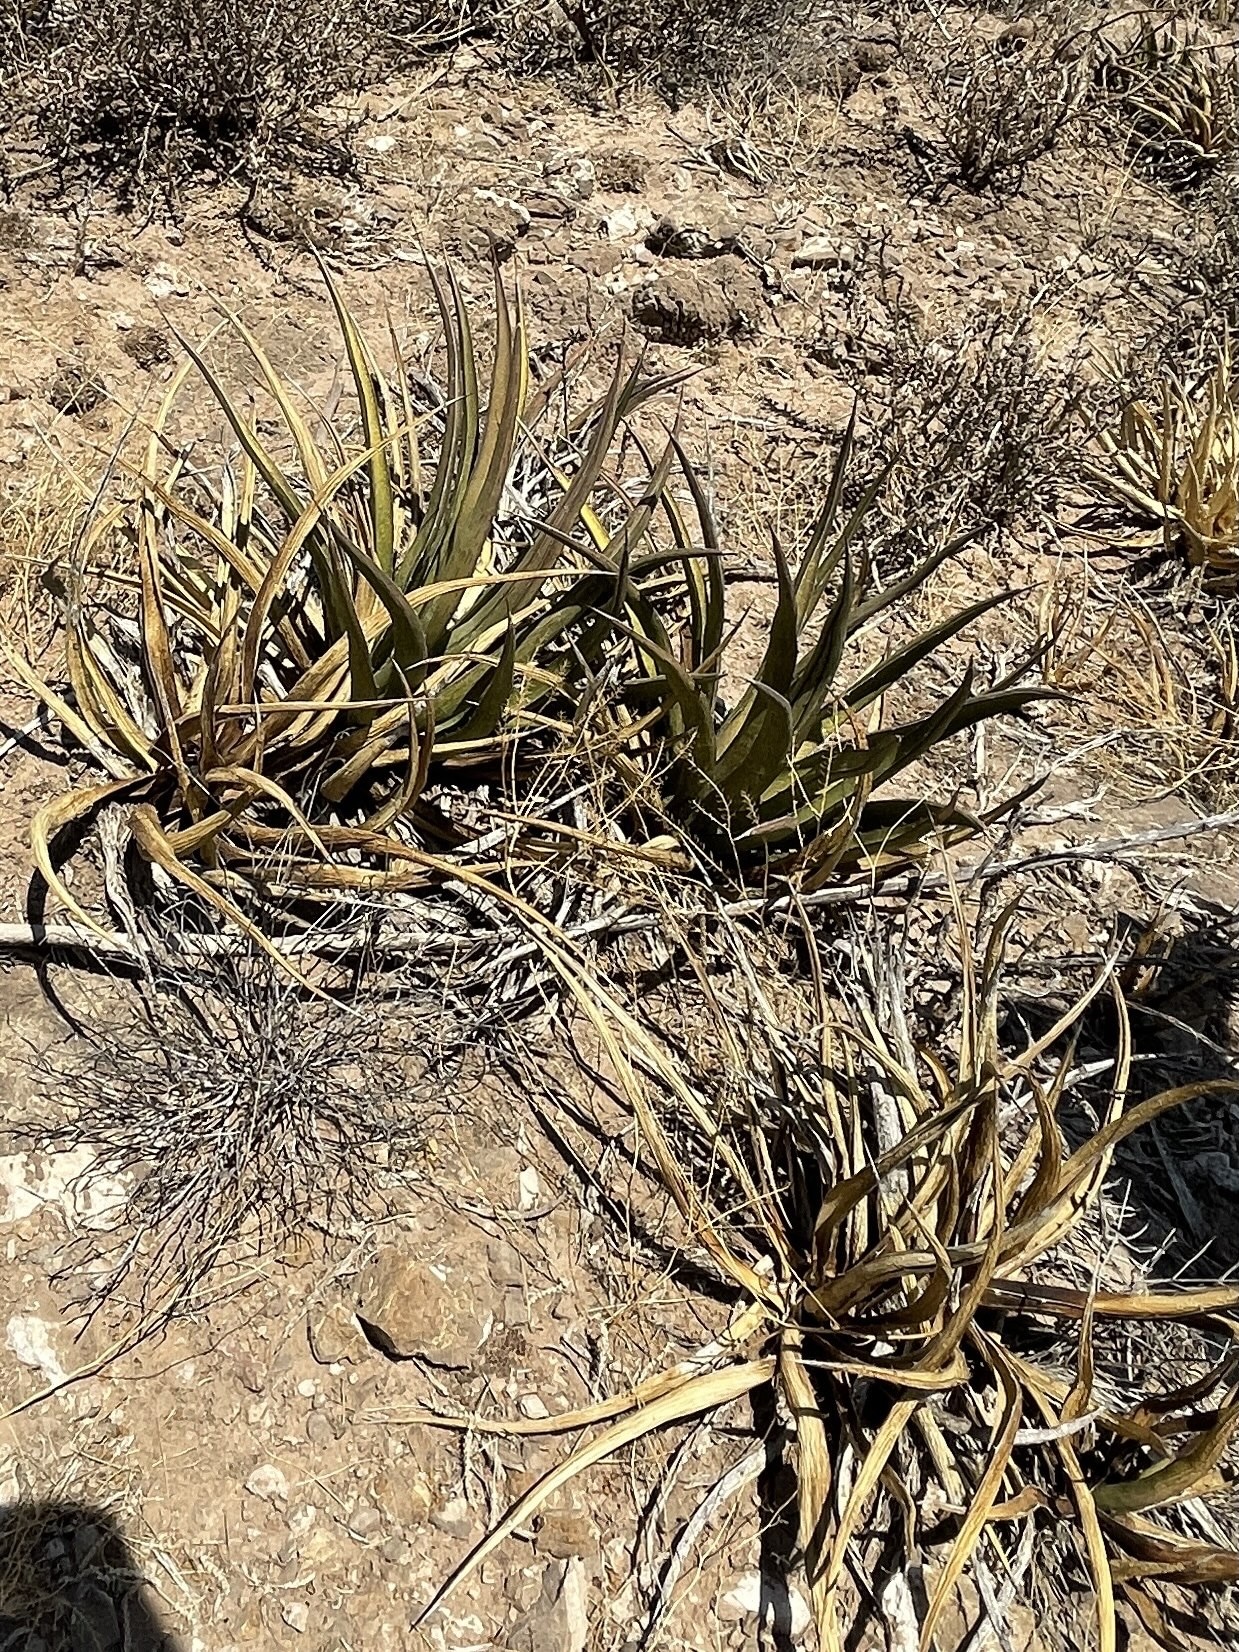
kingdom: Plantae
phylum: Tracheophyta
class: Liliopsida
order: Asparagales
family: Asparagaceae
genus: Agave
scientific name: Agave lechuguilla
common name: Lecheguilla agave
